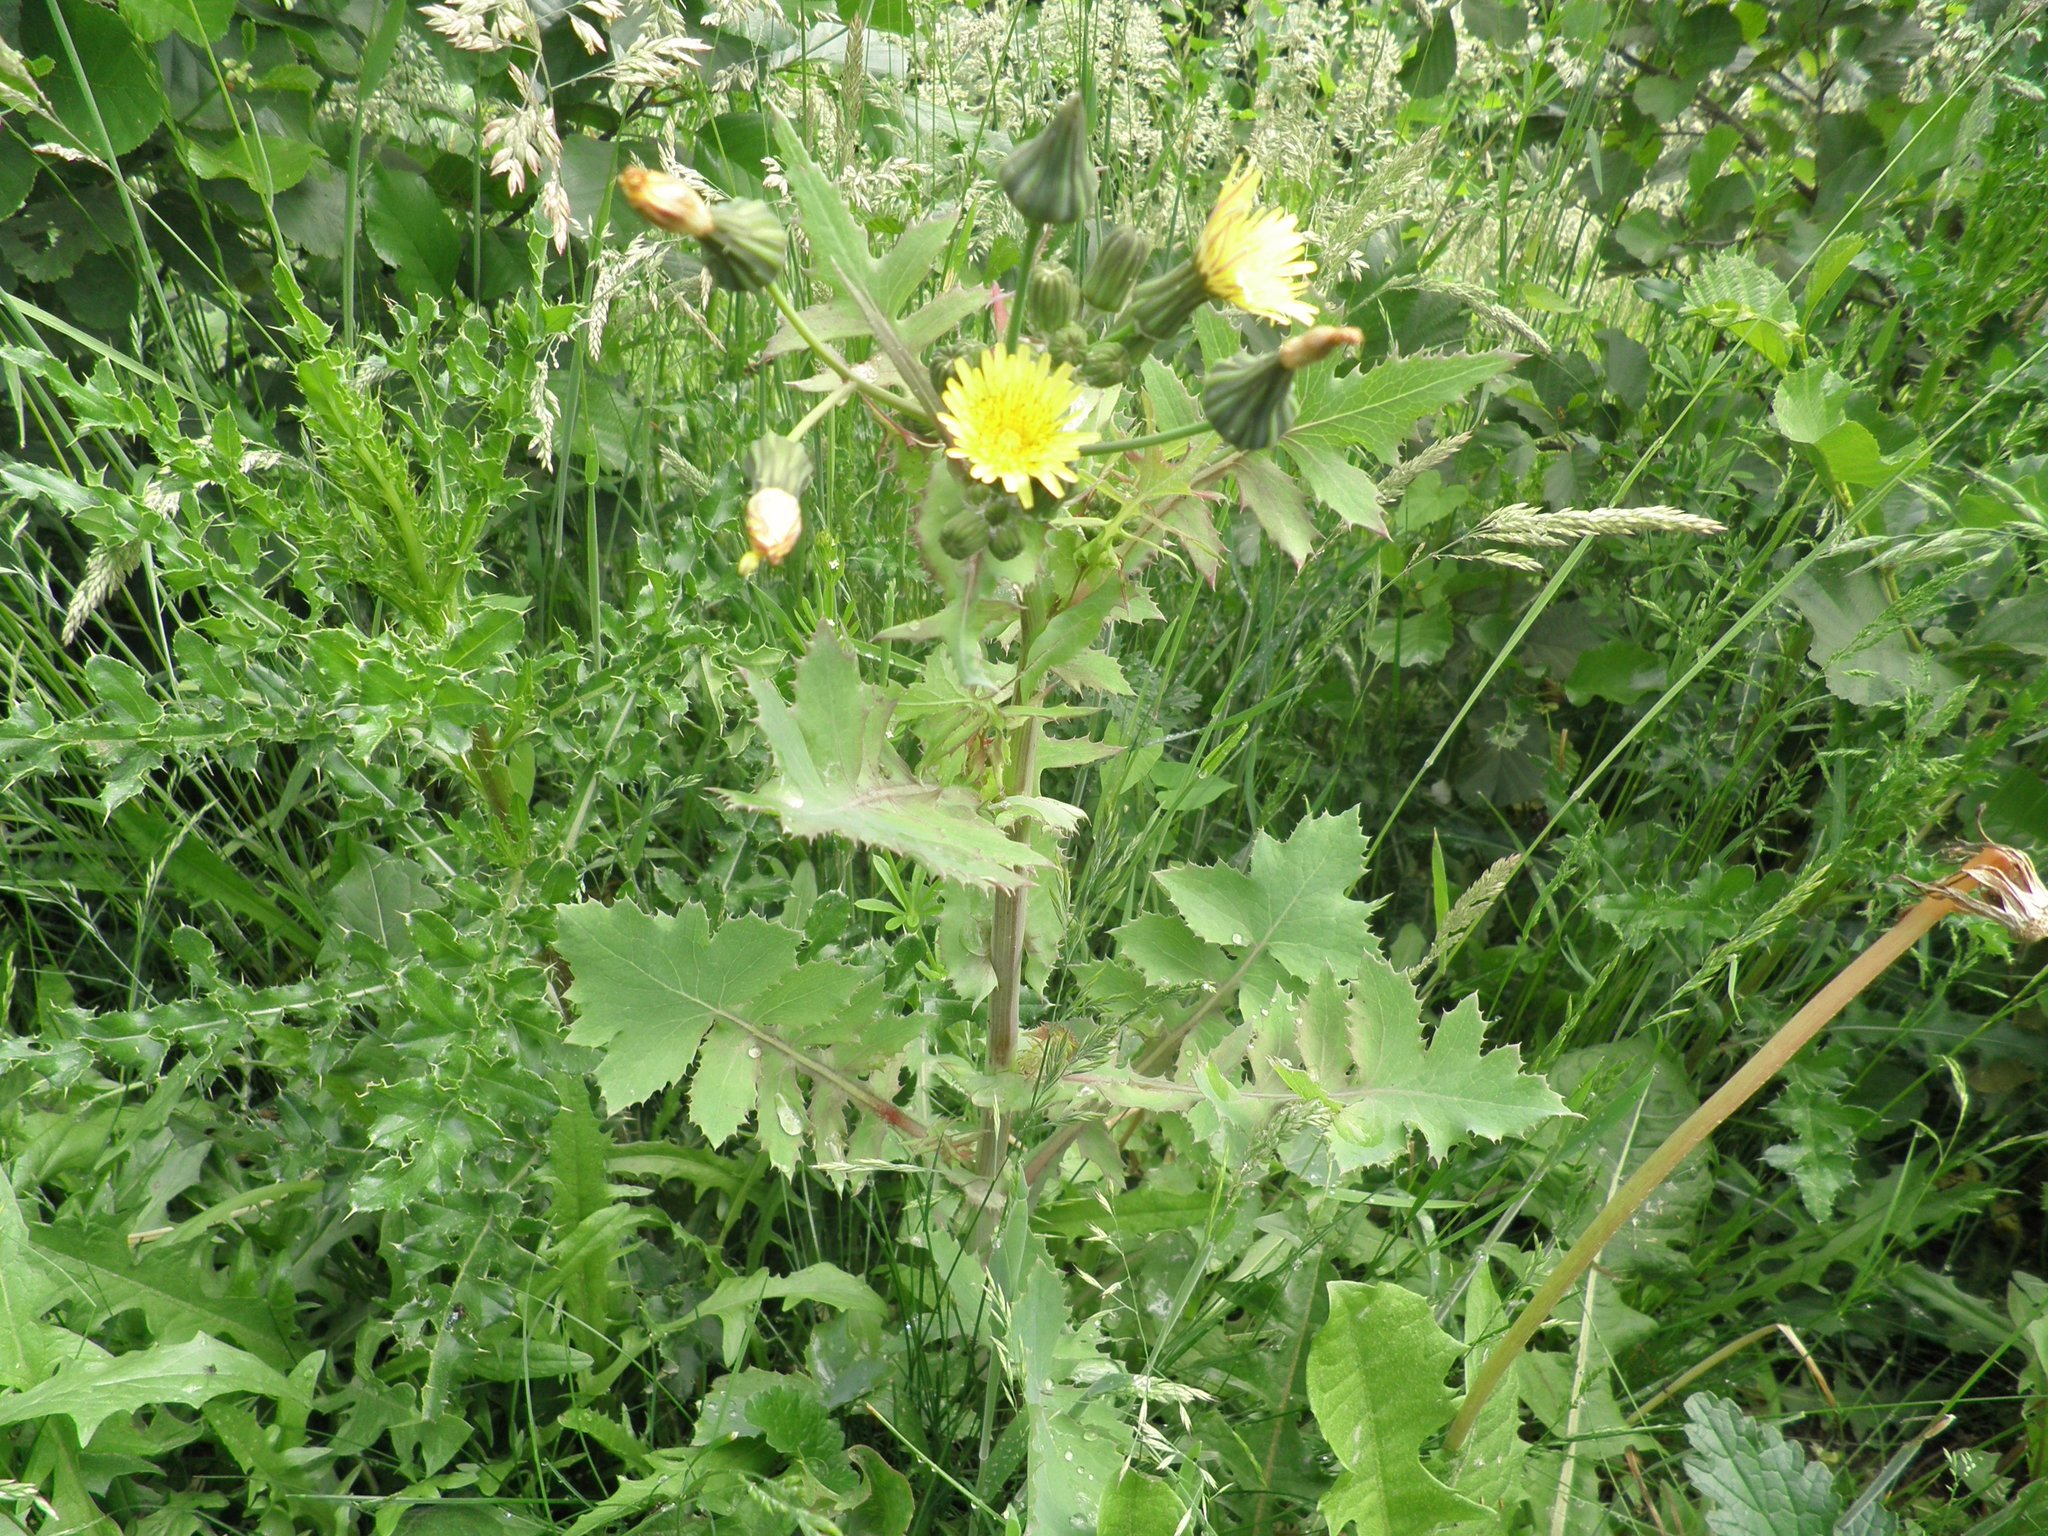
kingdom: Plantae
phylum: Tracheophyta
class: Magnoliopsida
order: Asterales
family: Asteraceae
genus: Sonchus
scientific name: Sonchus oleraceus
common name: Common sowthistle
